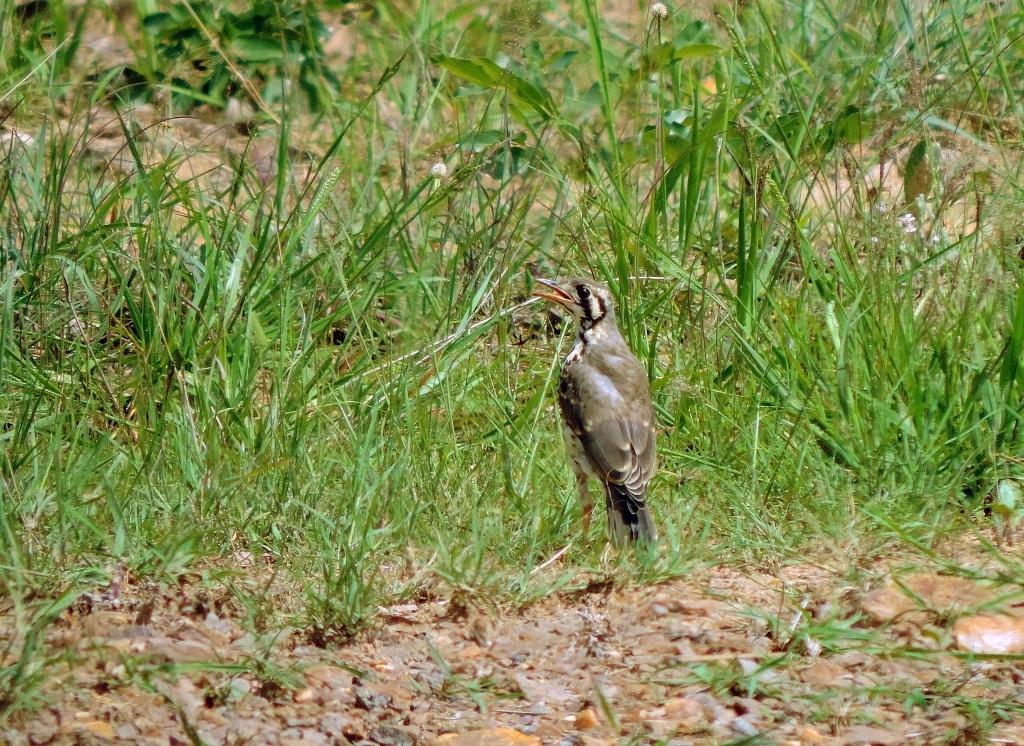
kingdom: Animalia
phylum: Chordata
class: Aves
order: Passeriformes
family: Turdidae
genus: Psophocichla
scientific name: Psophocichla litsitsirupa
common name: Groundscraper thrush
